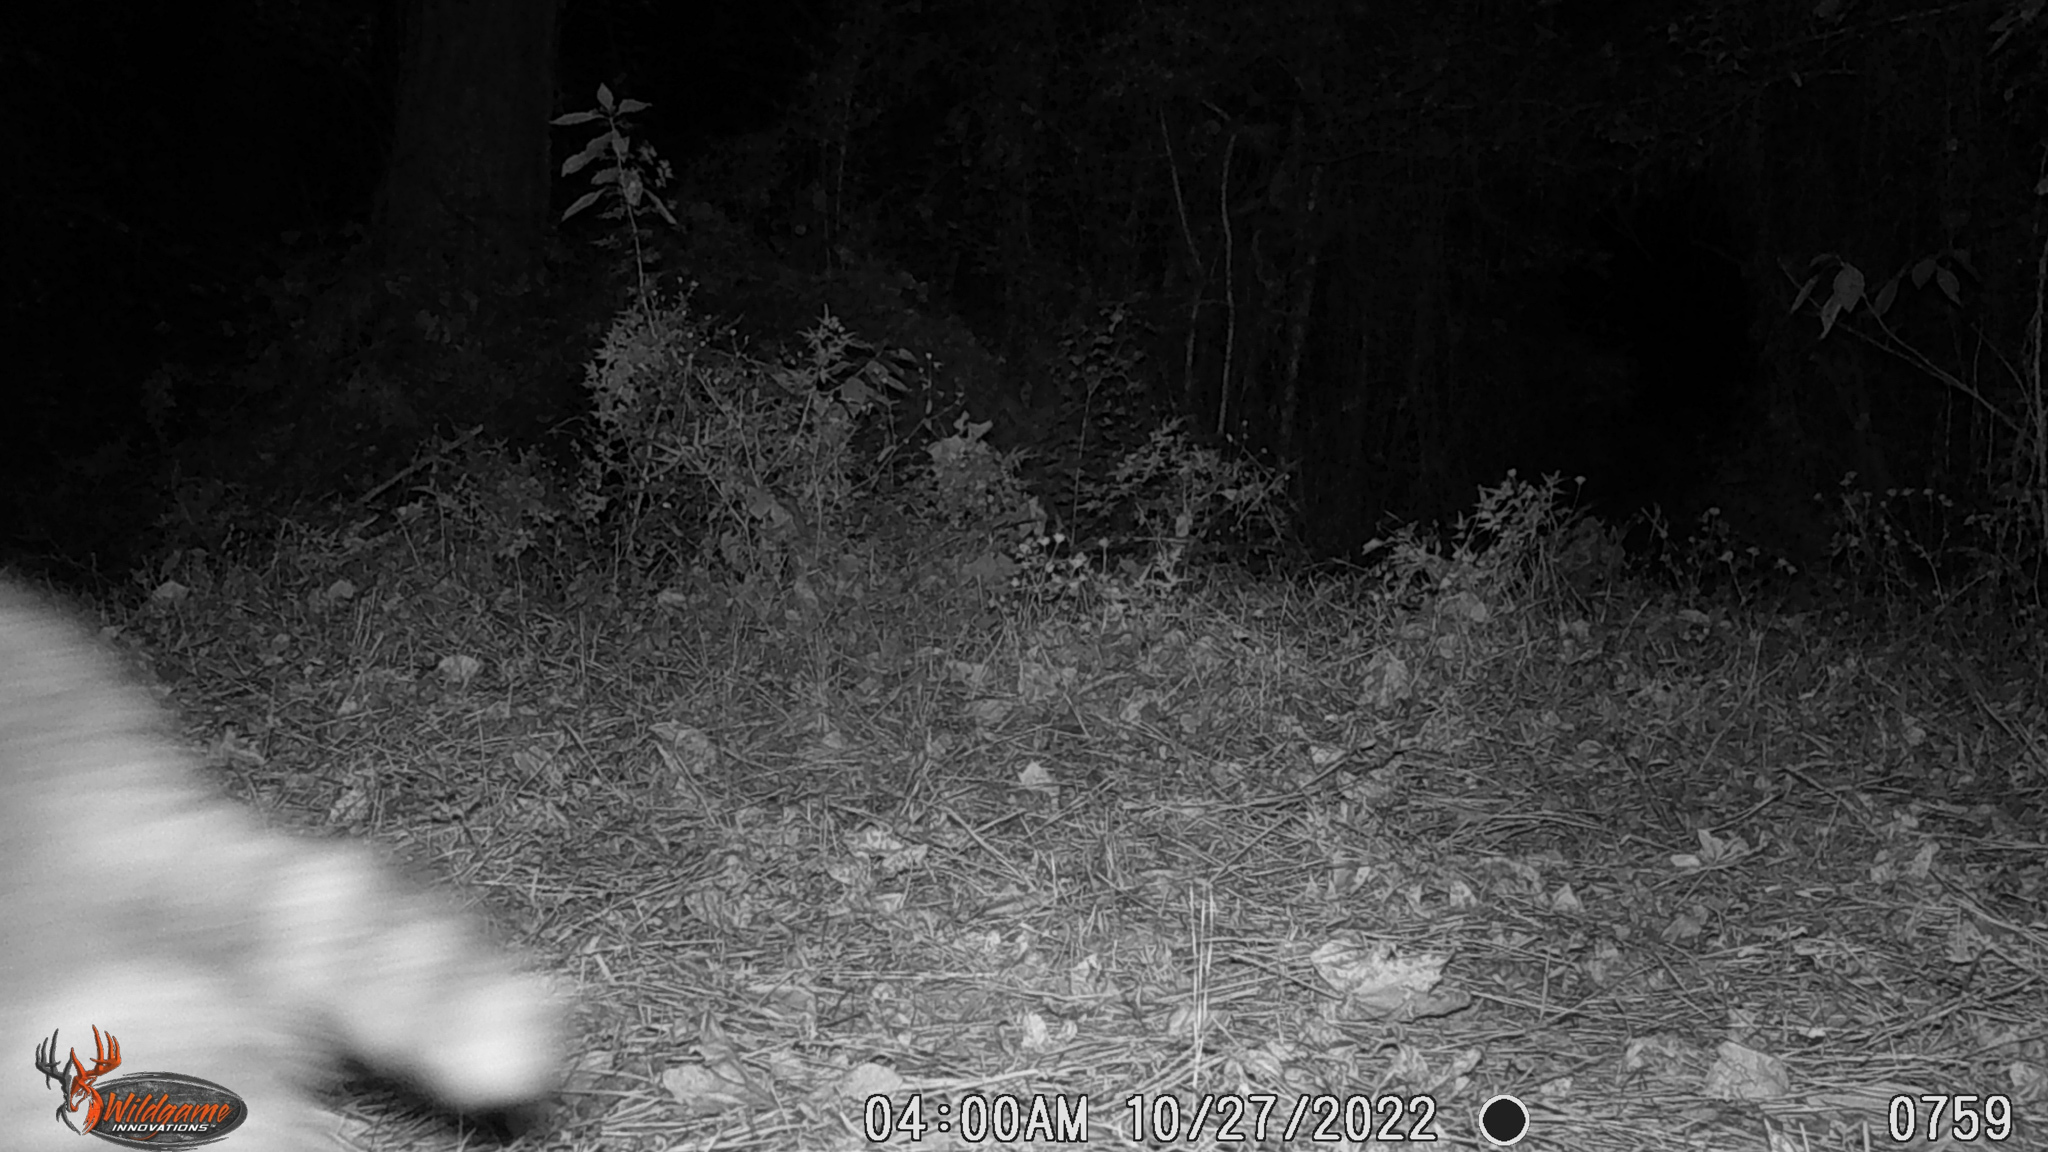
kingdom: Animalia
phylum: Chordata
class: Mammalia
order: Carnivora
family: Procyonidae
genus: Procyon
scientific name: Procyon lotor
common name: Raccoon
